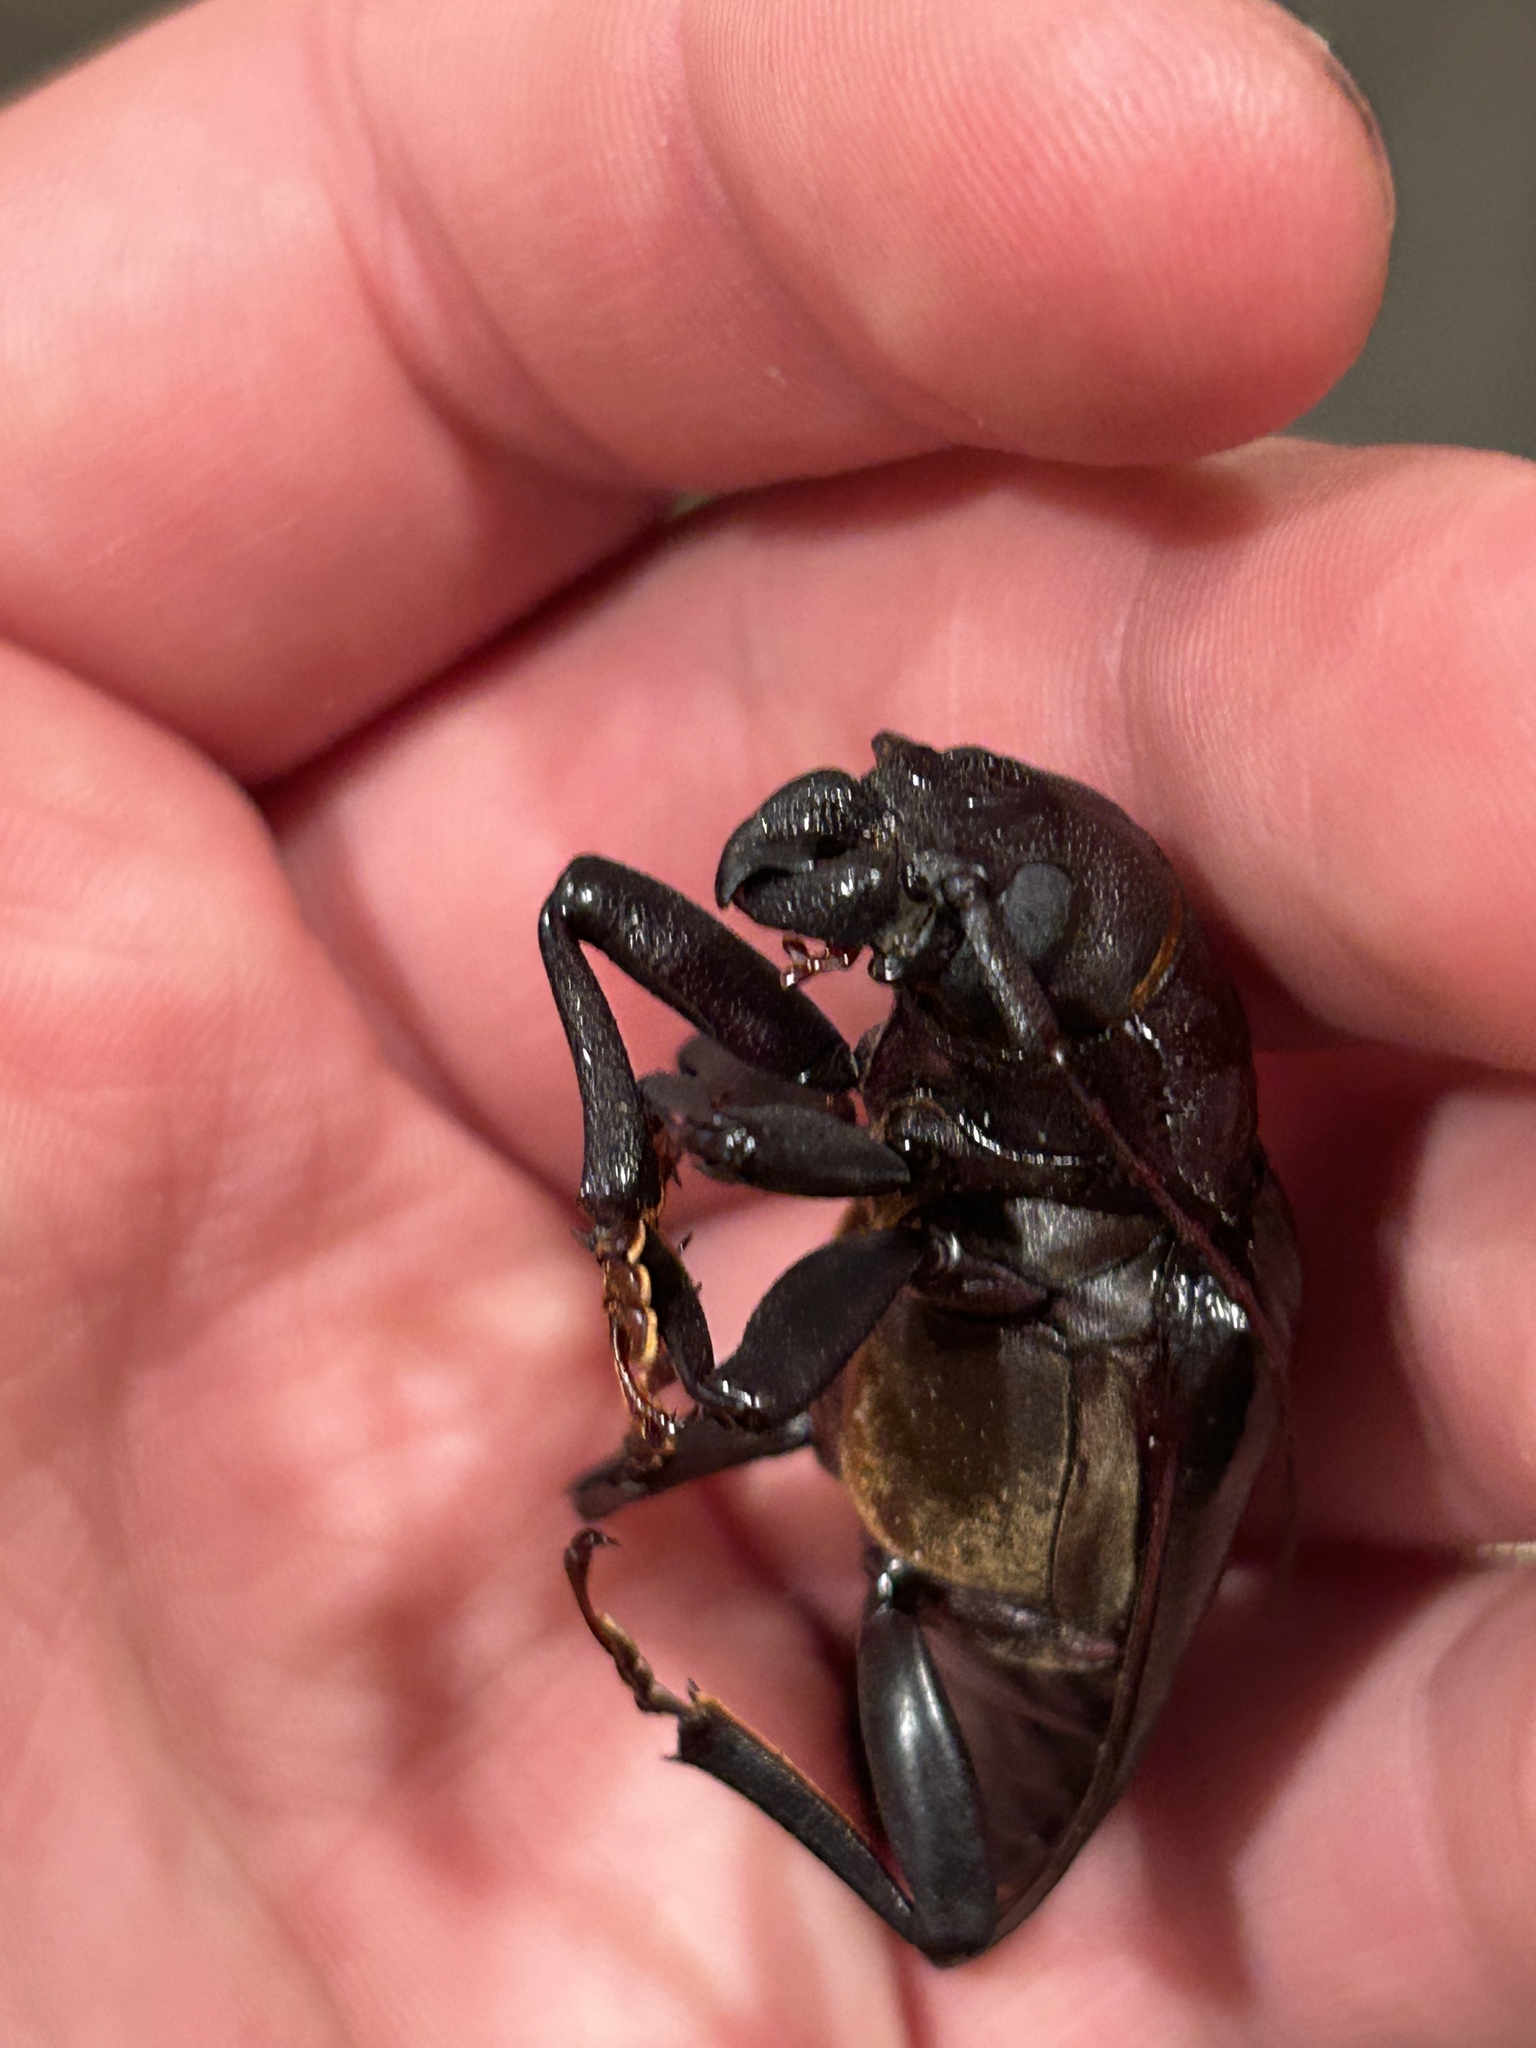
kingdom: Animalia
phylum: Arthropoda
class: Insecta
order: Coleoptera
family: Cerambycidae
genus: Archodontes
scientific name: Archodontes melanopus
